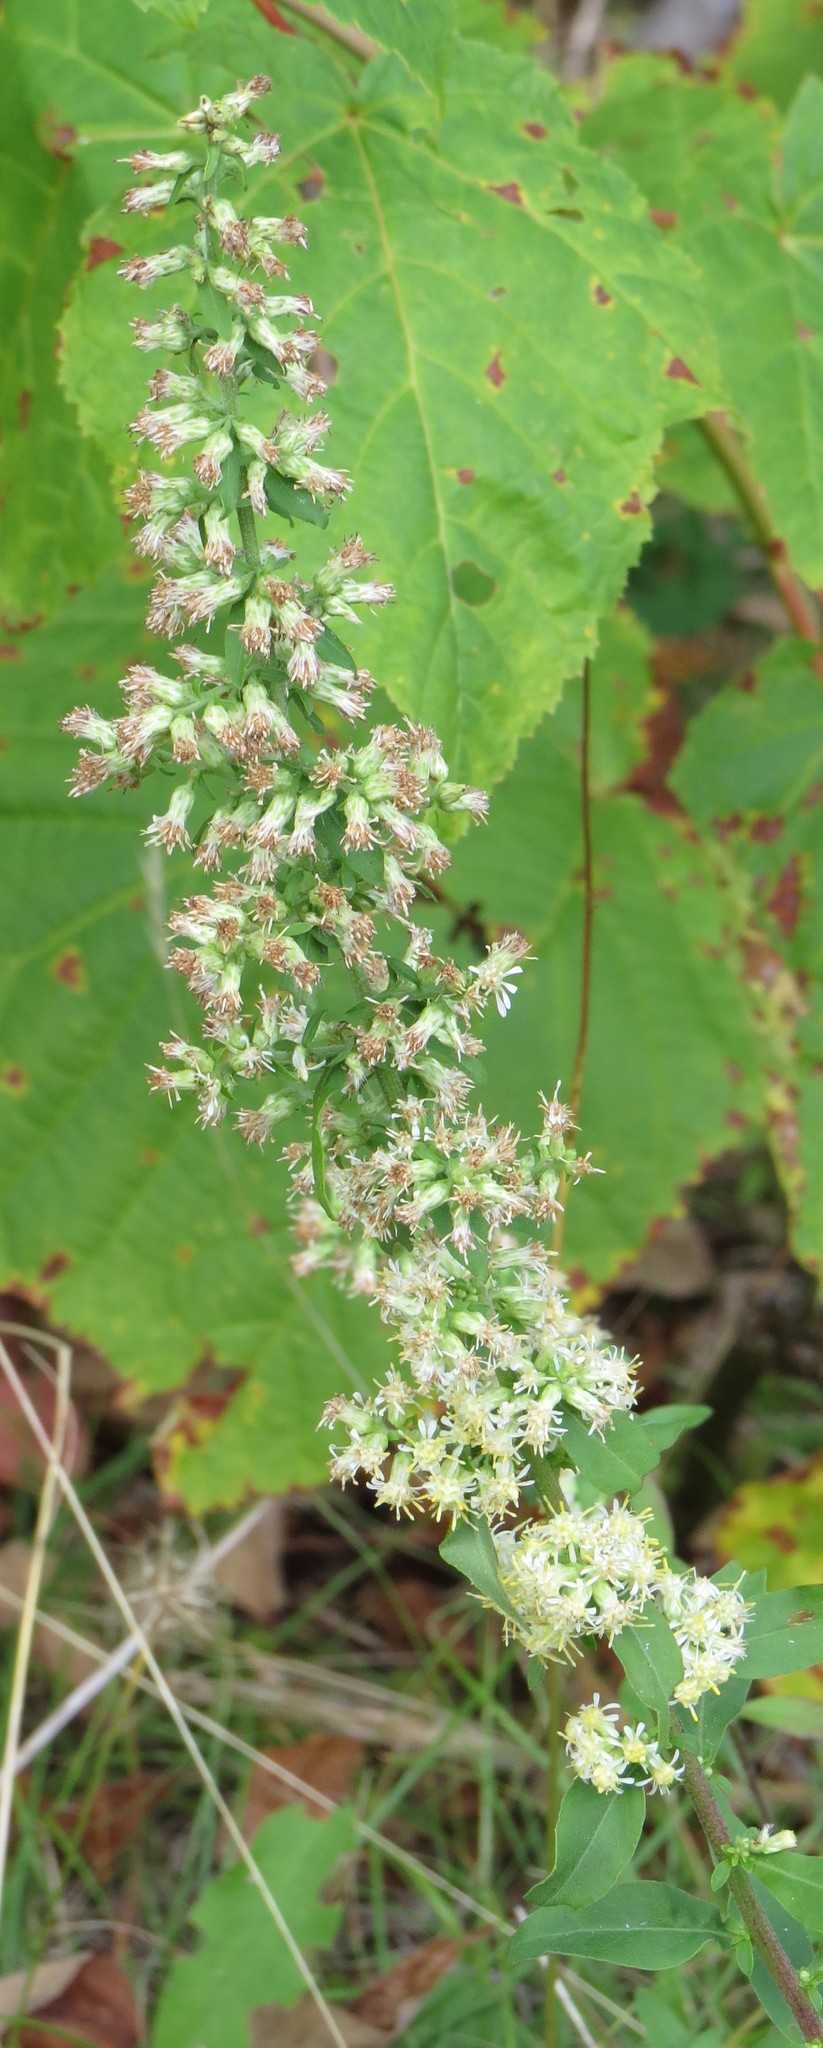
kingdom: Plantae
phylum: Tracheophyta
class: Magnoliopsida
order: Asterales
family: Asteraceae
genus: Solidago
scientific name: Solidago bicolor
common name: Silverrod
